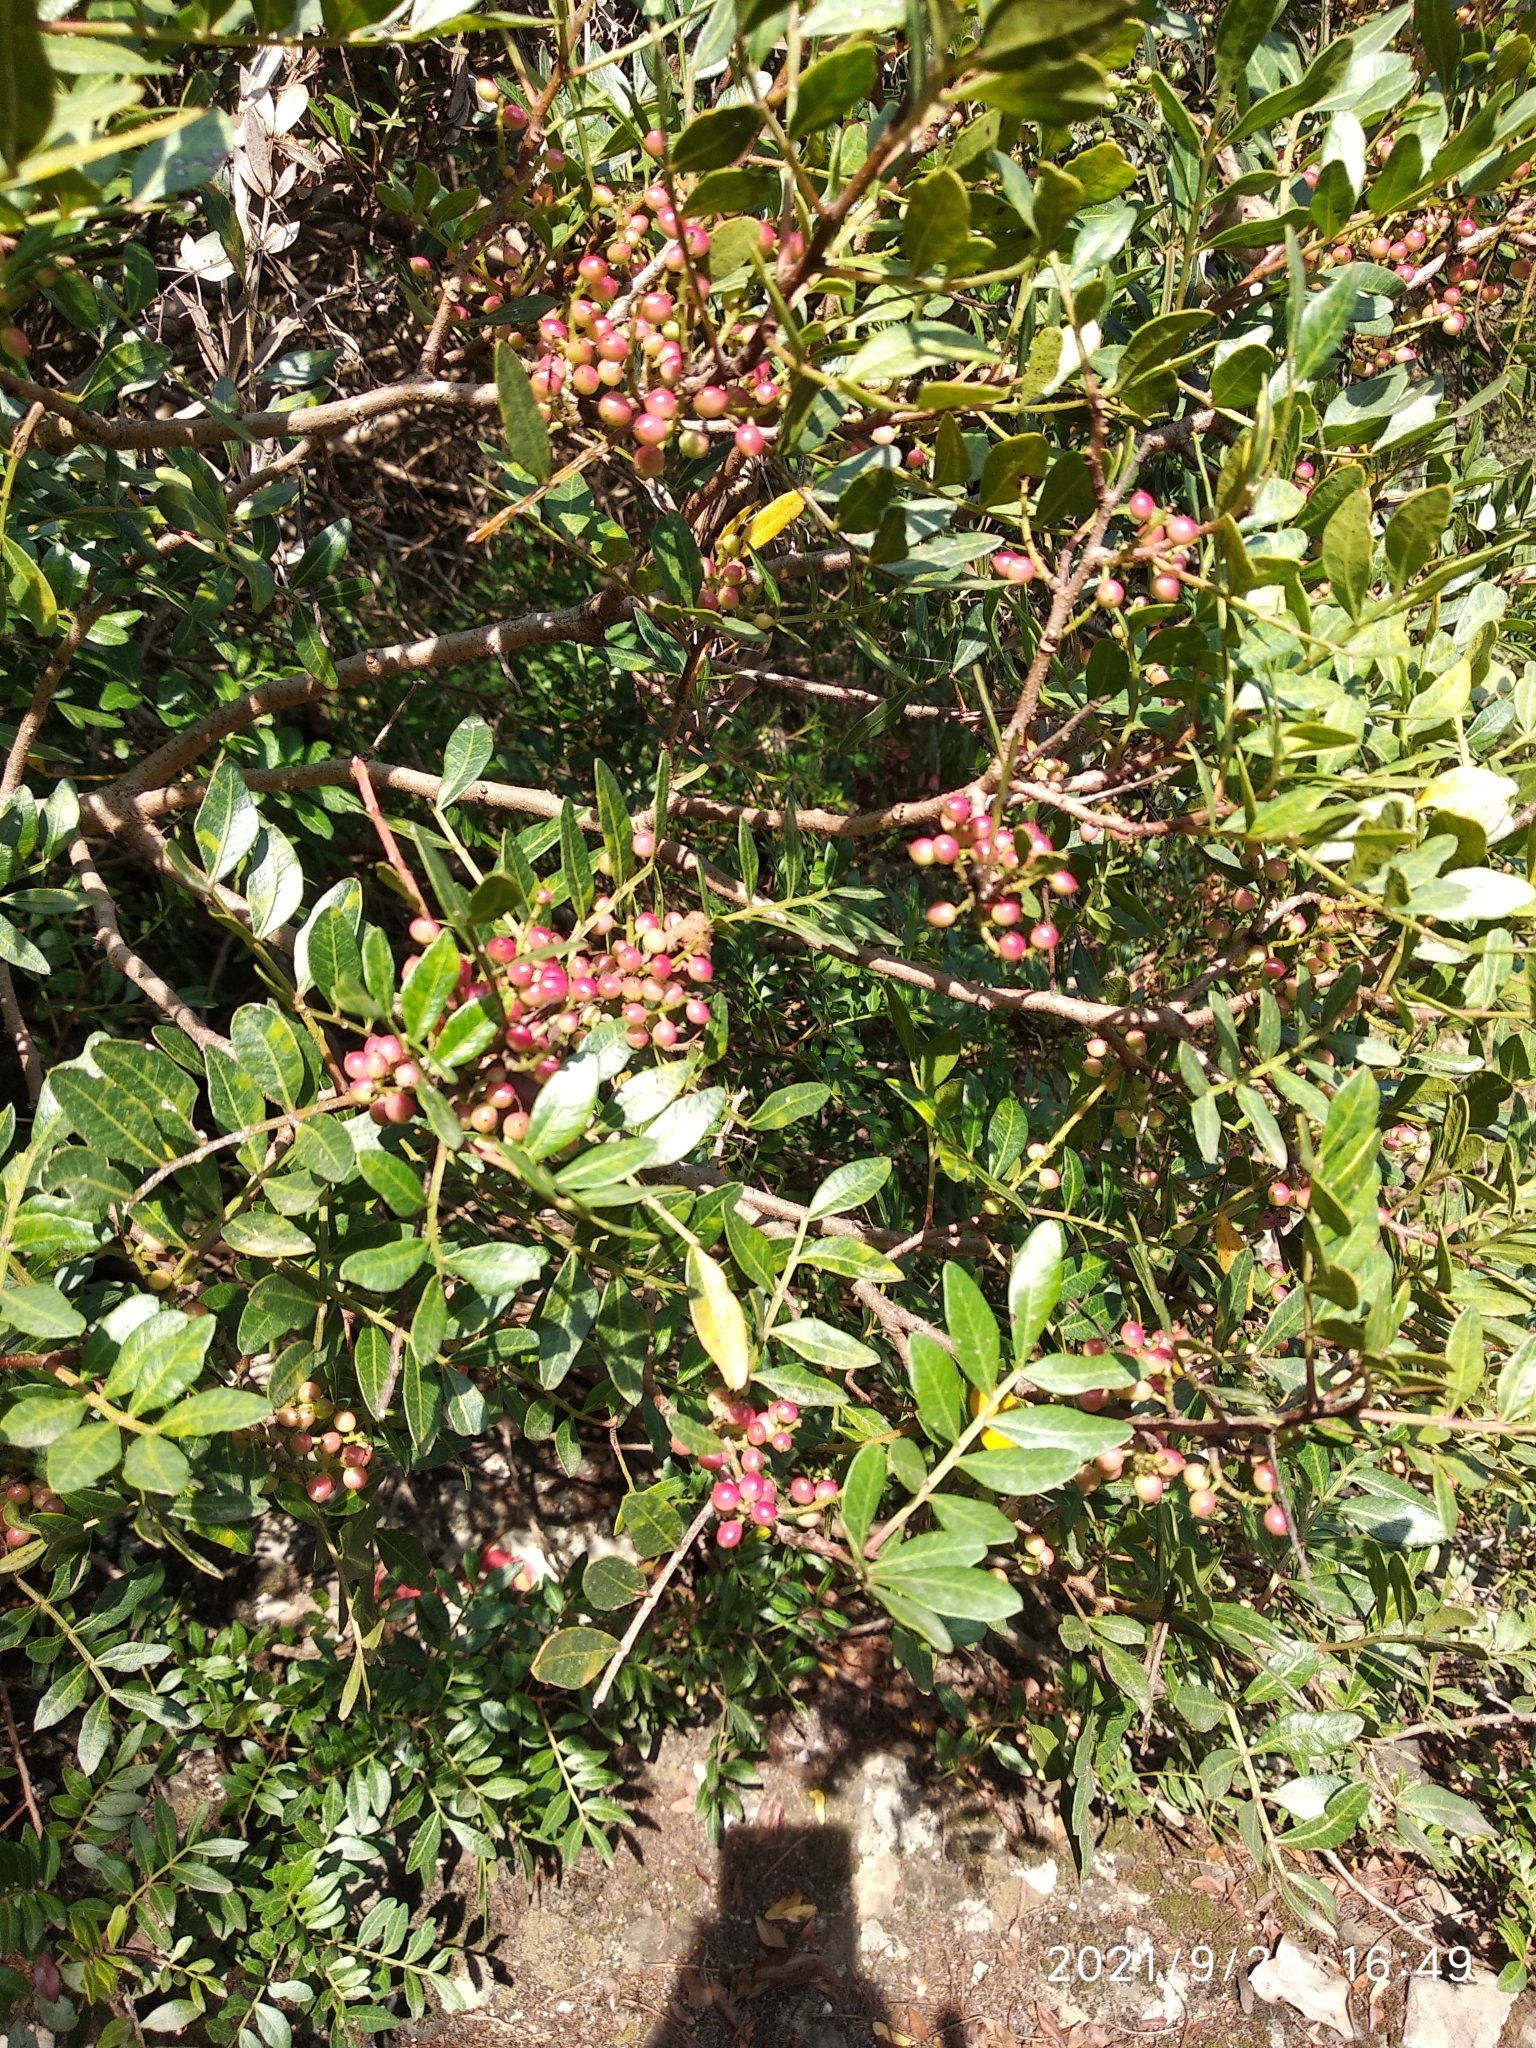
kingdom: Plantae
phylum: Tracheophyta
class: Magnoliopsida
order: Sapindales
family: Anacardiaceae
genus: Pistacia
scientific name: Pistacia lentiscus
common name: Lentisk
